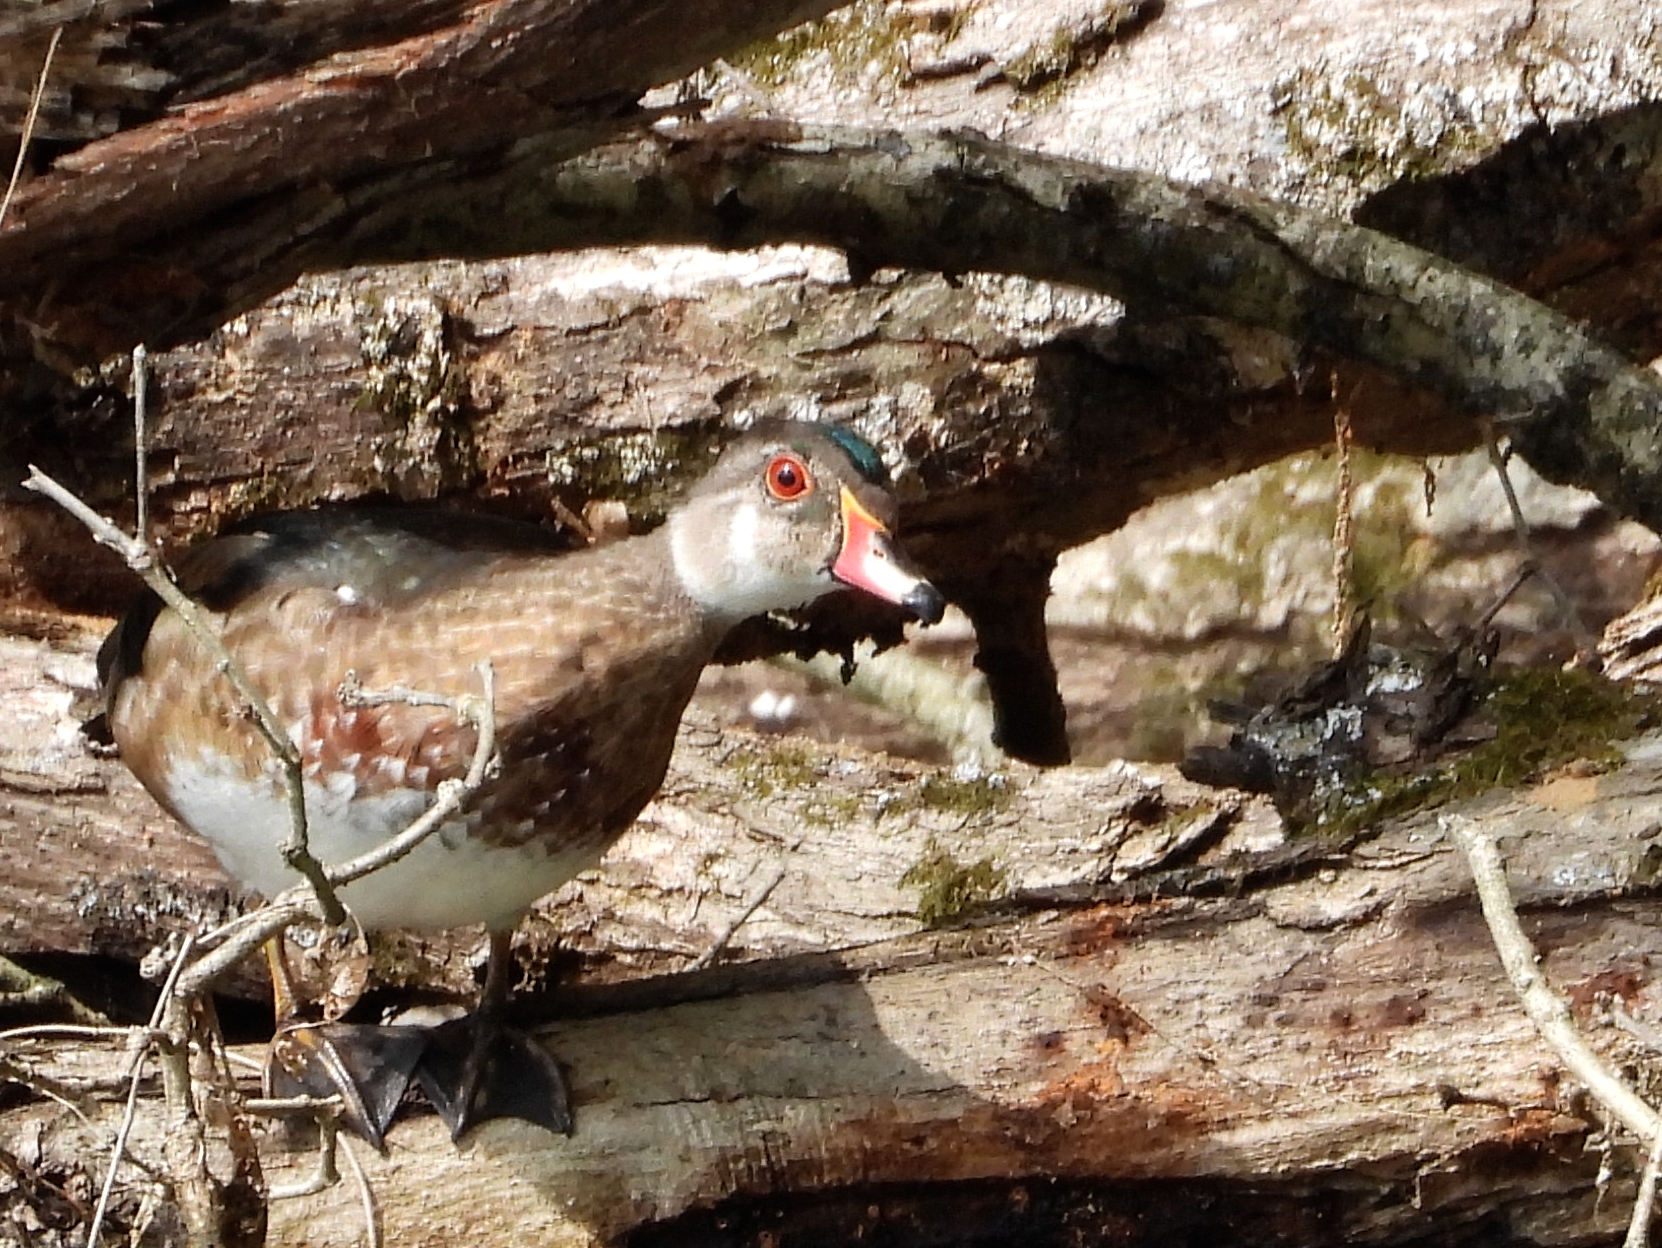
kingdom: Animalia
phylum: Chordata
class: Aves
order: Anseriformes
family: Anatidae
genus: Aix
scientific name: Aix sponsa
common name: Wood duck
